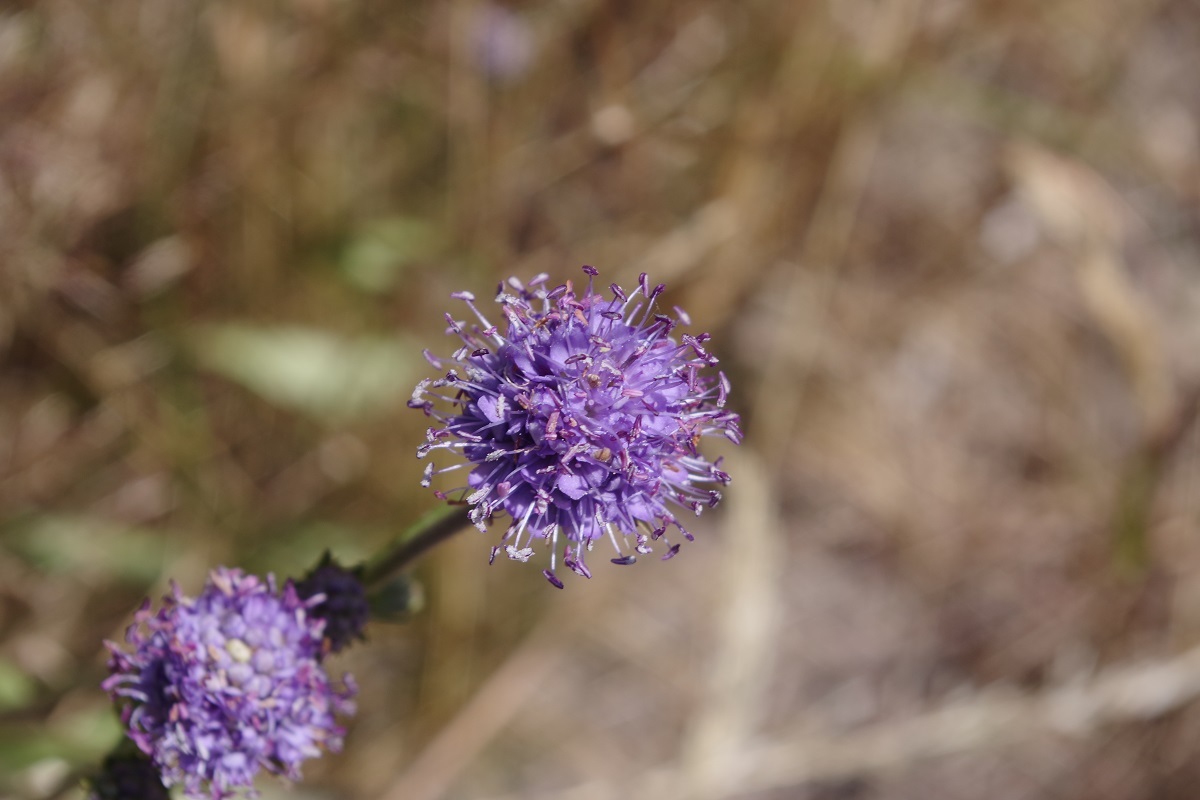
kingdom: Plantae
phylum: Tracheophyta
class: Magnoliopsida
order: Dipsacales
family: Caprifoliaceae
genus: Succisa
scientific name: Succisa pratensis
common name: Devil's-bit
